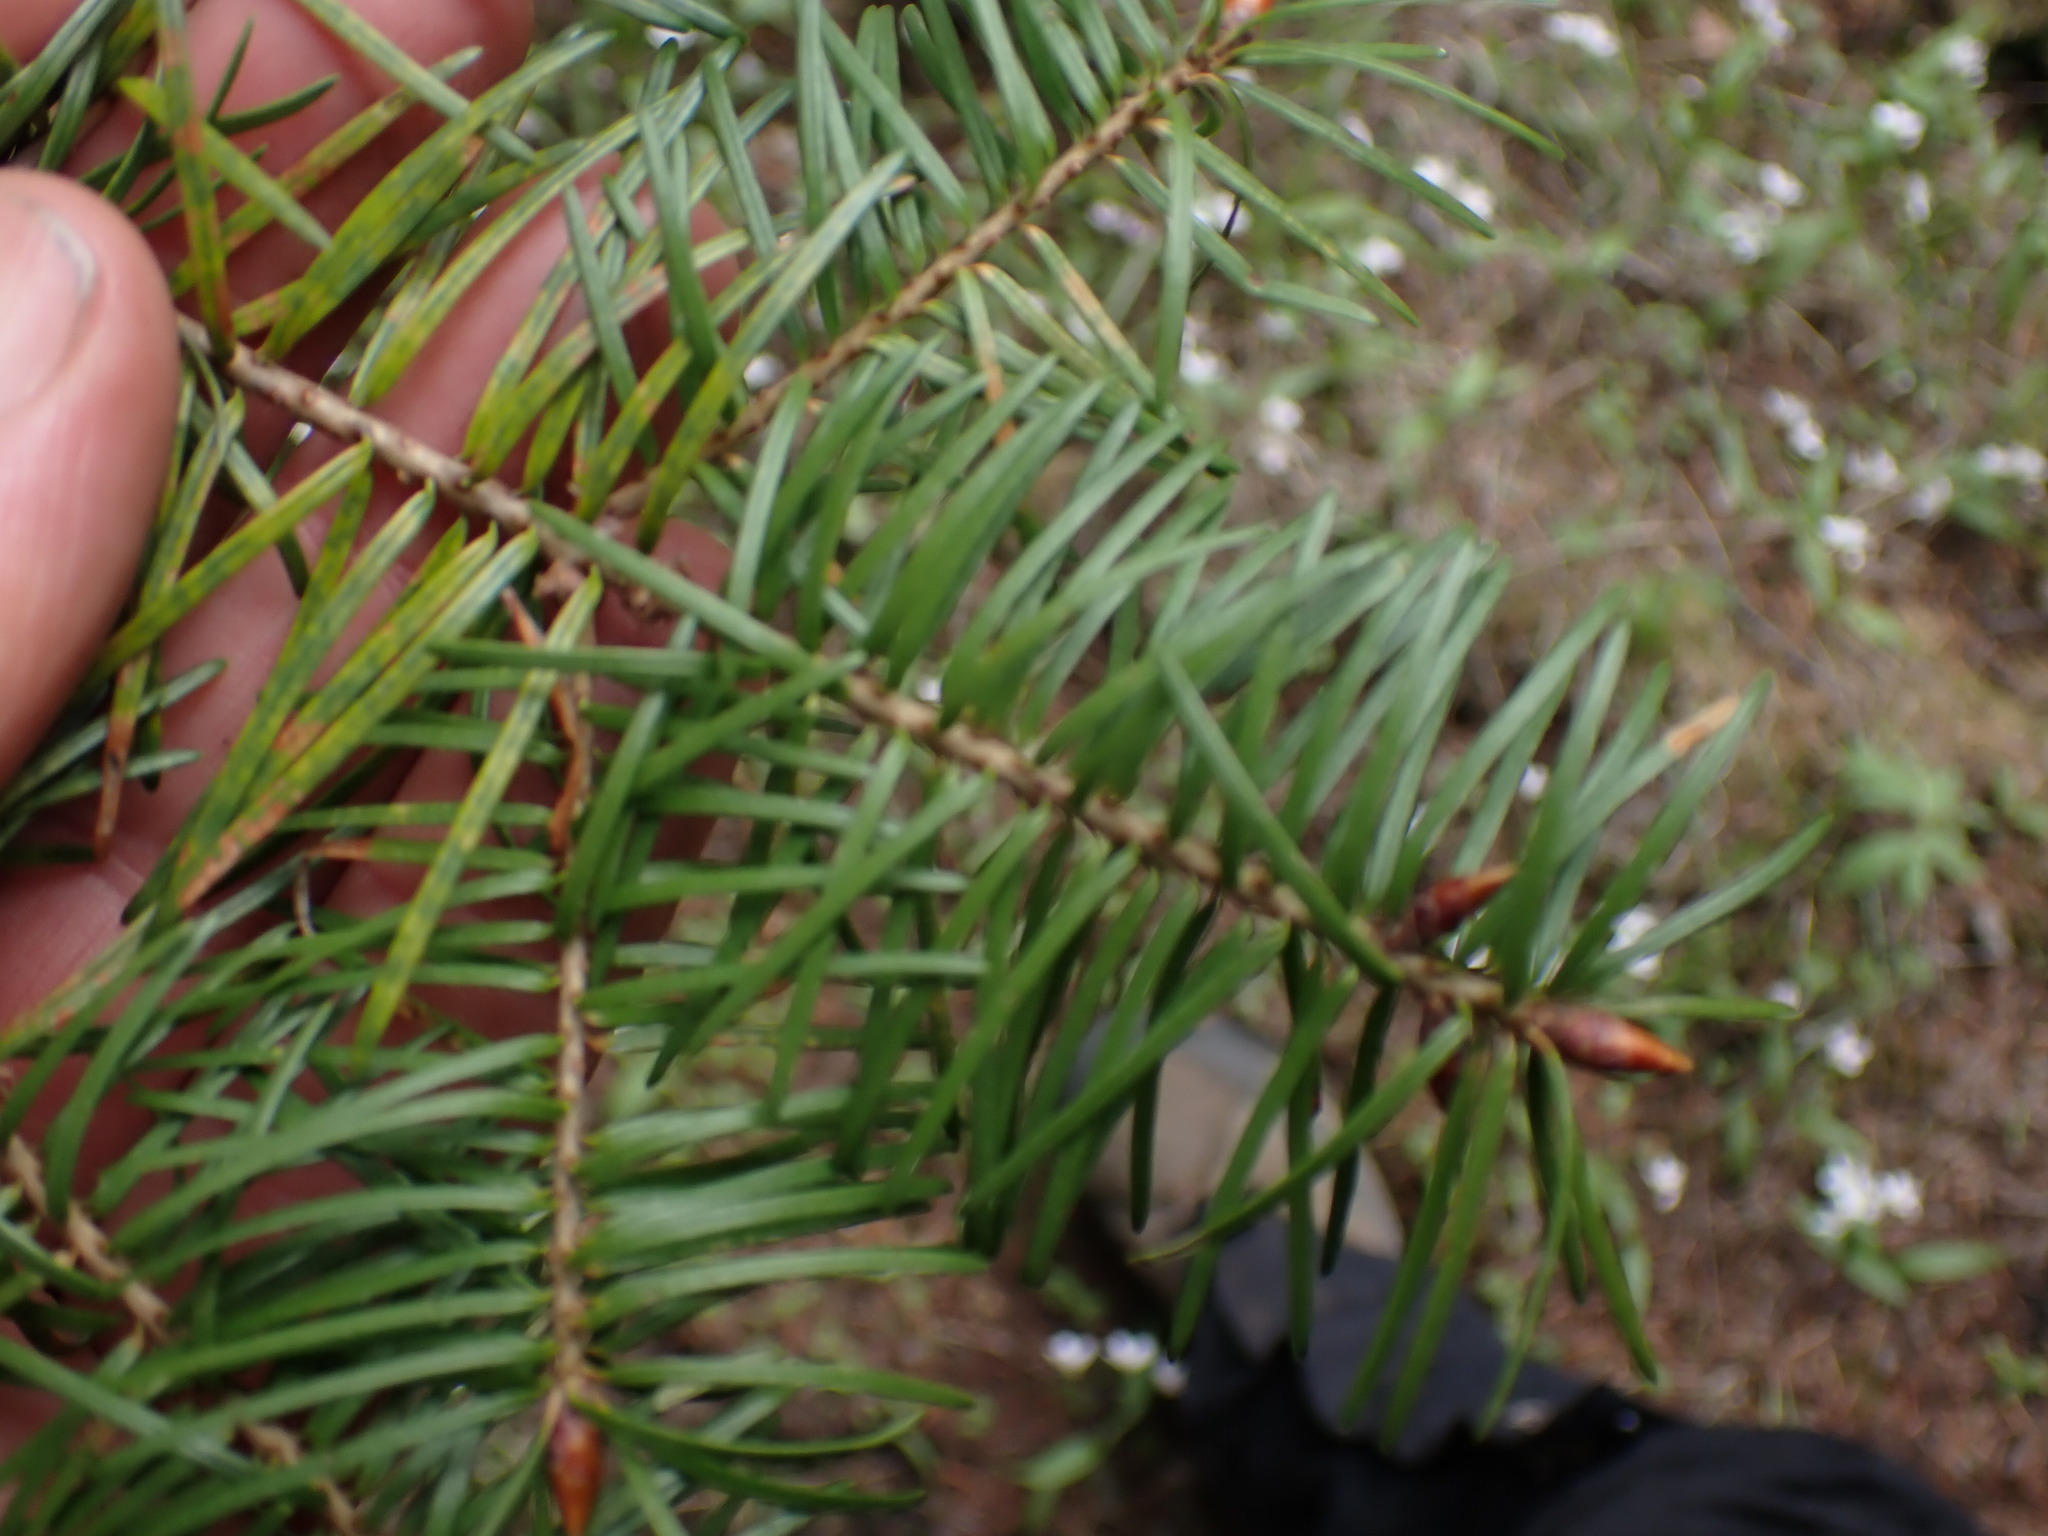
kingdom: Plantae
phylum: Tracheophyta
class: Pinopsida
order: Pinales
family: Pinaceae
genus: Pseudotsuga
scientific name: Pseudotsuga menziesii
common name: Douglas fir
